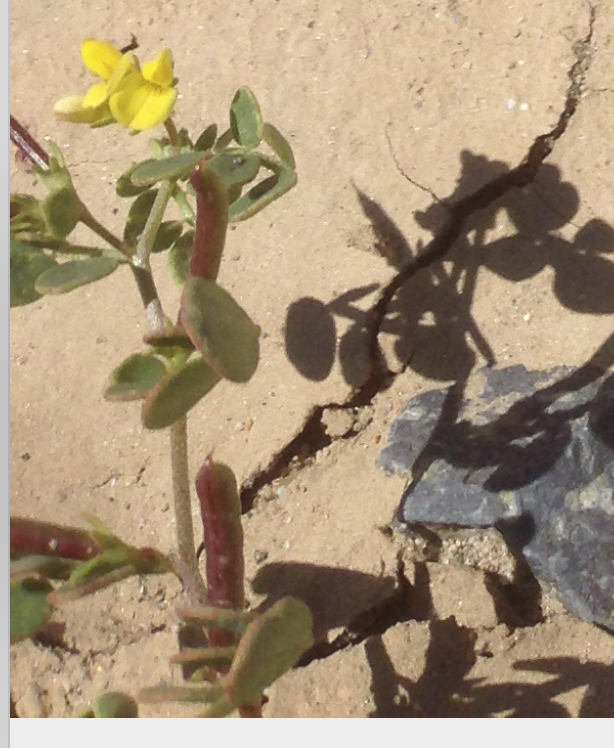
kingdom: Plantae
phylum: Tracheophyta
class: Magnoliopsida
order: Fabales
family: Fabaceae
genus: Acmispon
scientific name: Acmispon maritimus
